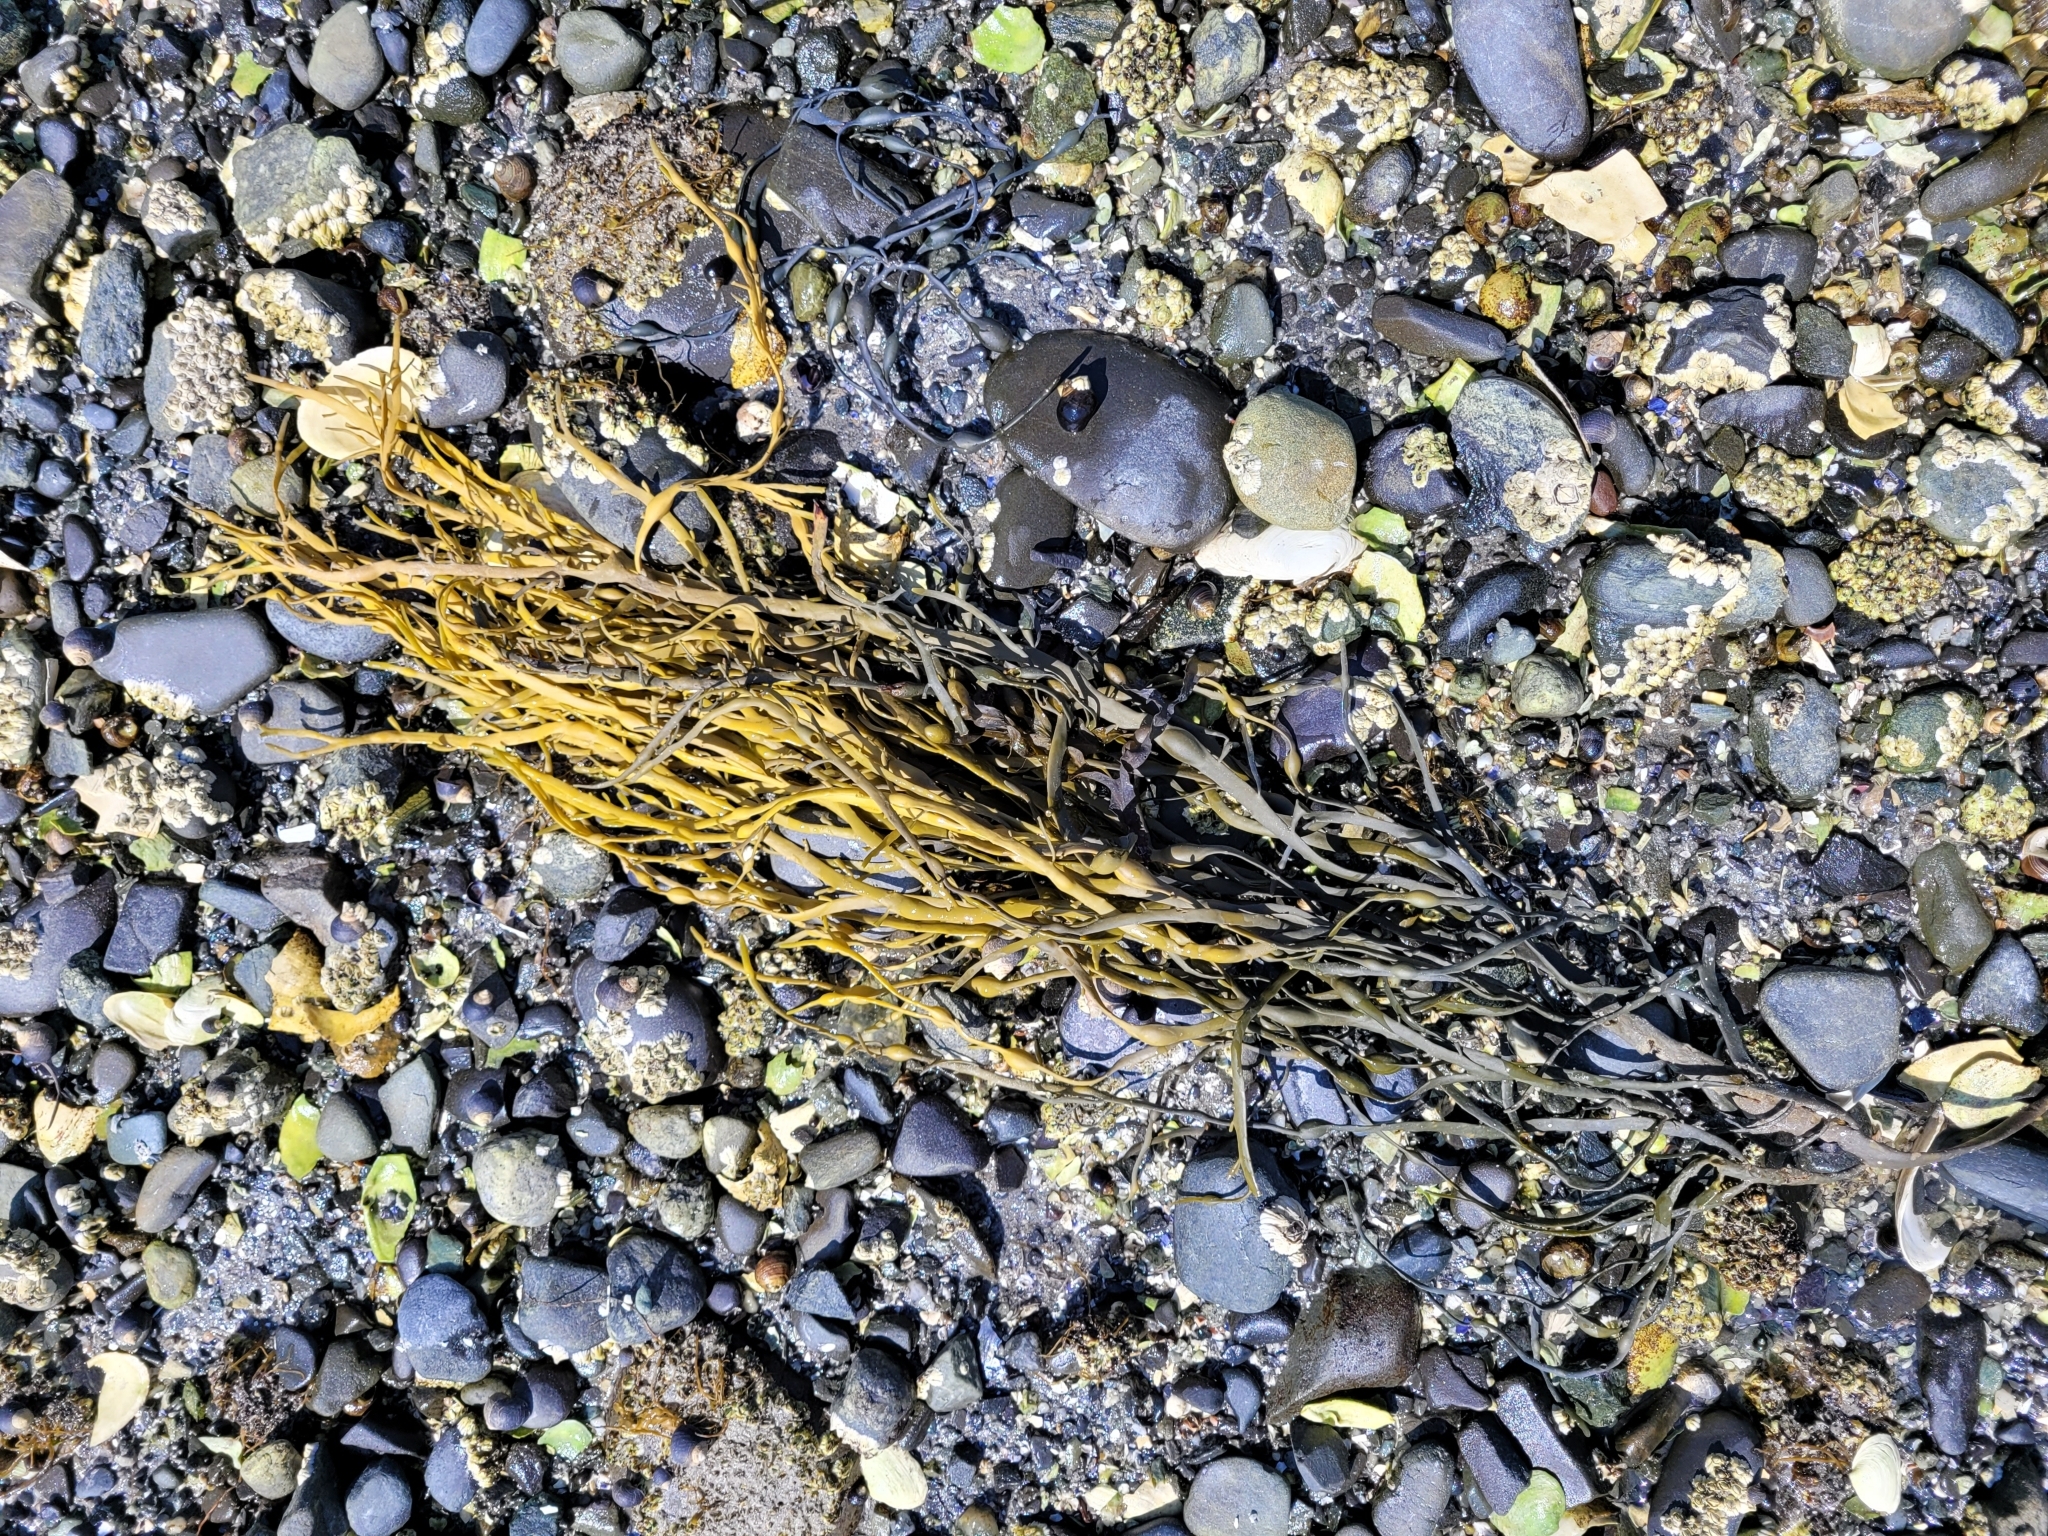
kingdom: Chromista
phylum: Ochrophyta
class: Phaeophyceae
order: Fucales
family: Fucaceae
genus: Ascophyllum
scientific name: Ascophyllum nodosum
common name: Knotted wrack
